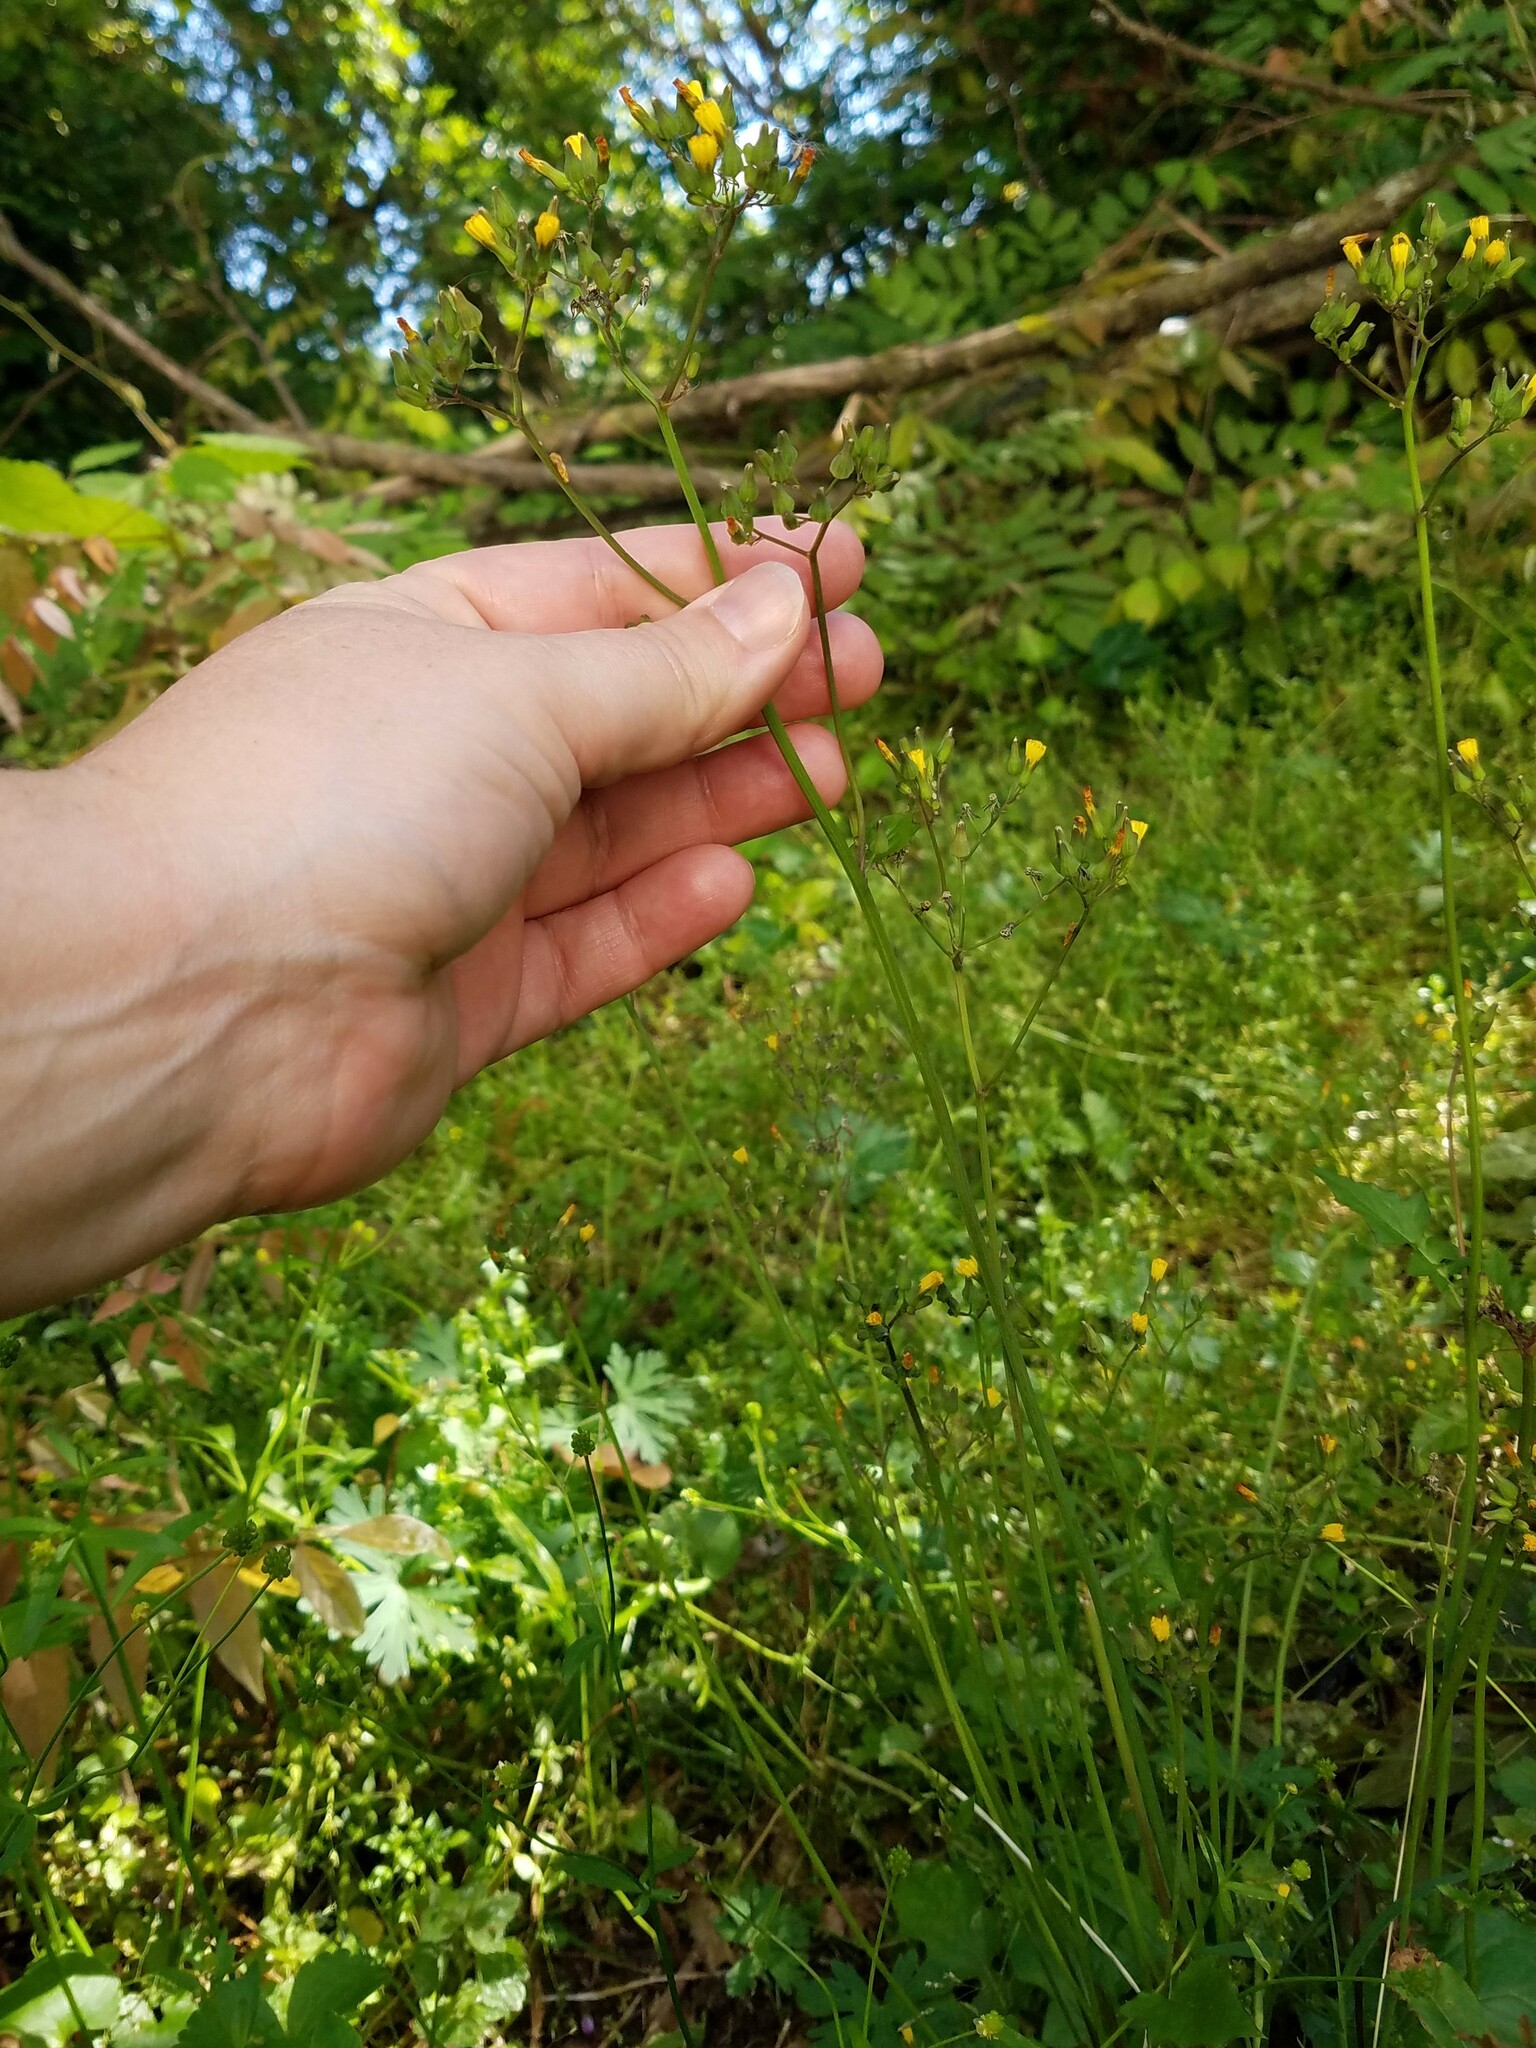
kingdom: Plantae
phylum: Tracheophyta
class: Magnoliopsida
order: Asterales
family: Asteraceae
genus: Youngia
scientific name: Youngia japonica
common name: Oriental false hawksbeard
